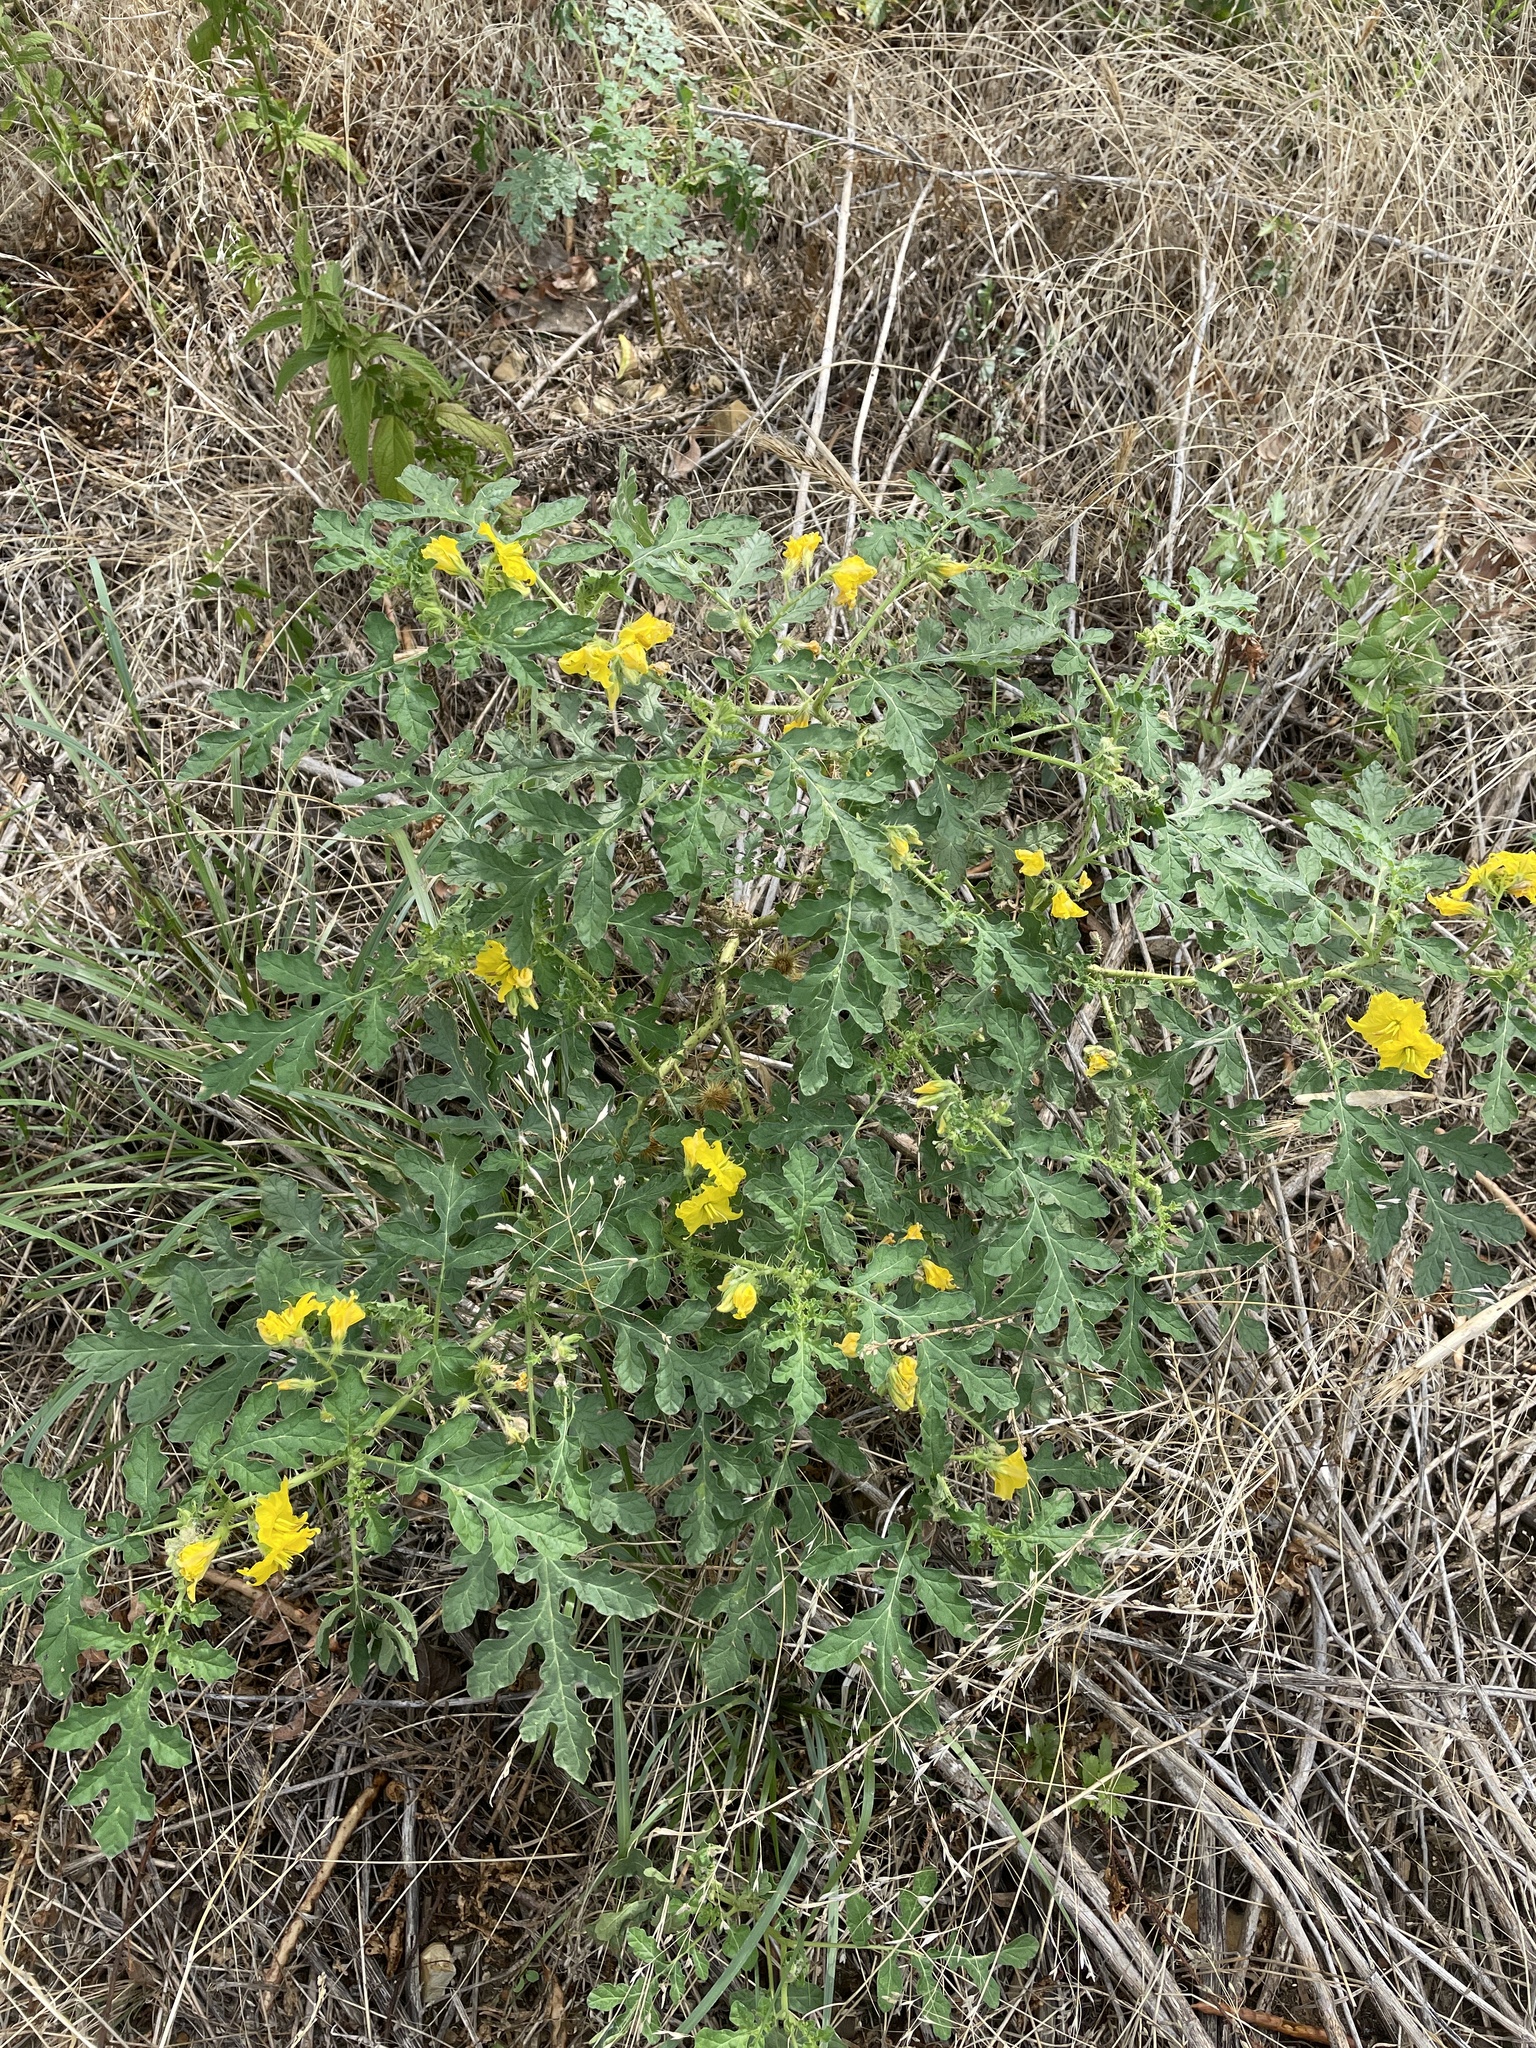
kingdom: Plantae
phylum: Tracheophyta
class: Magnoliopsida
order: Solanales
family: Solanaceae
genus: Solanum
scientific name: Solanum angustifolium
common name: Buffalobur nightshade
